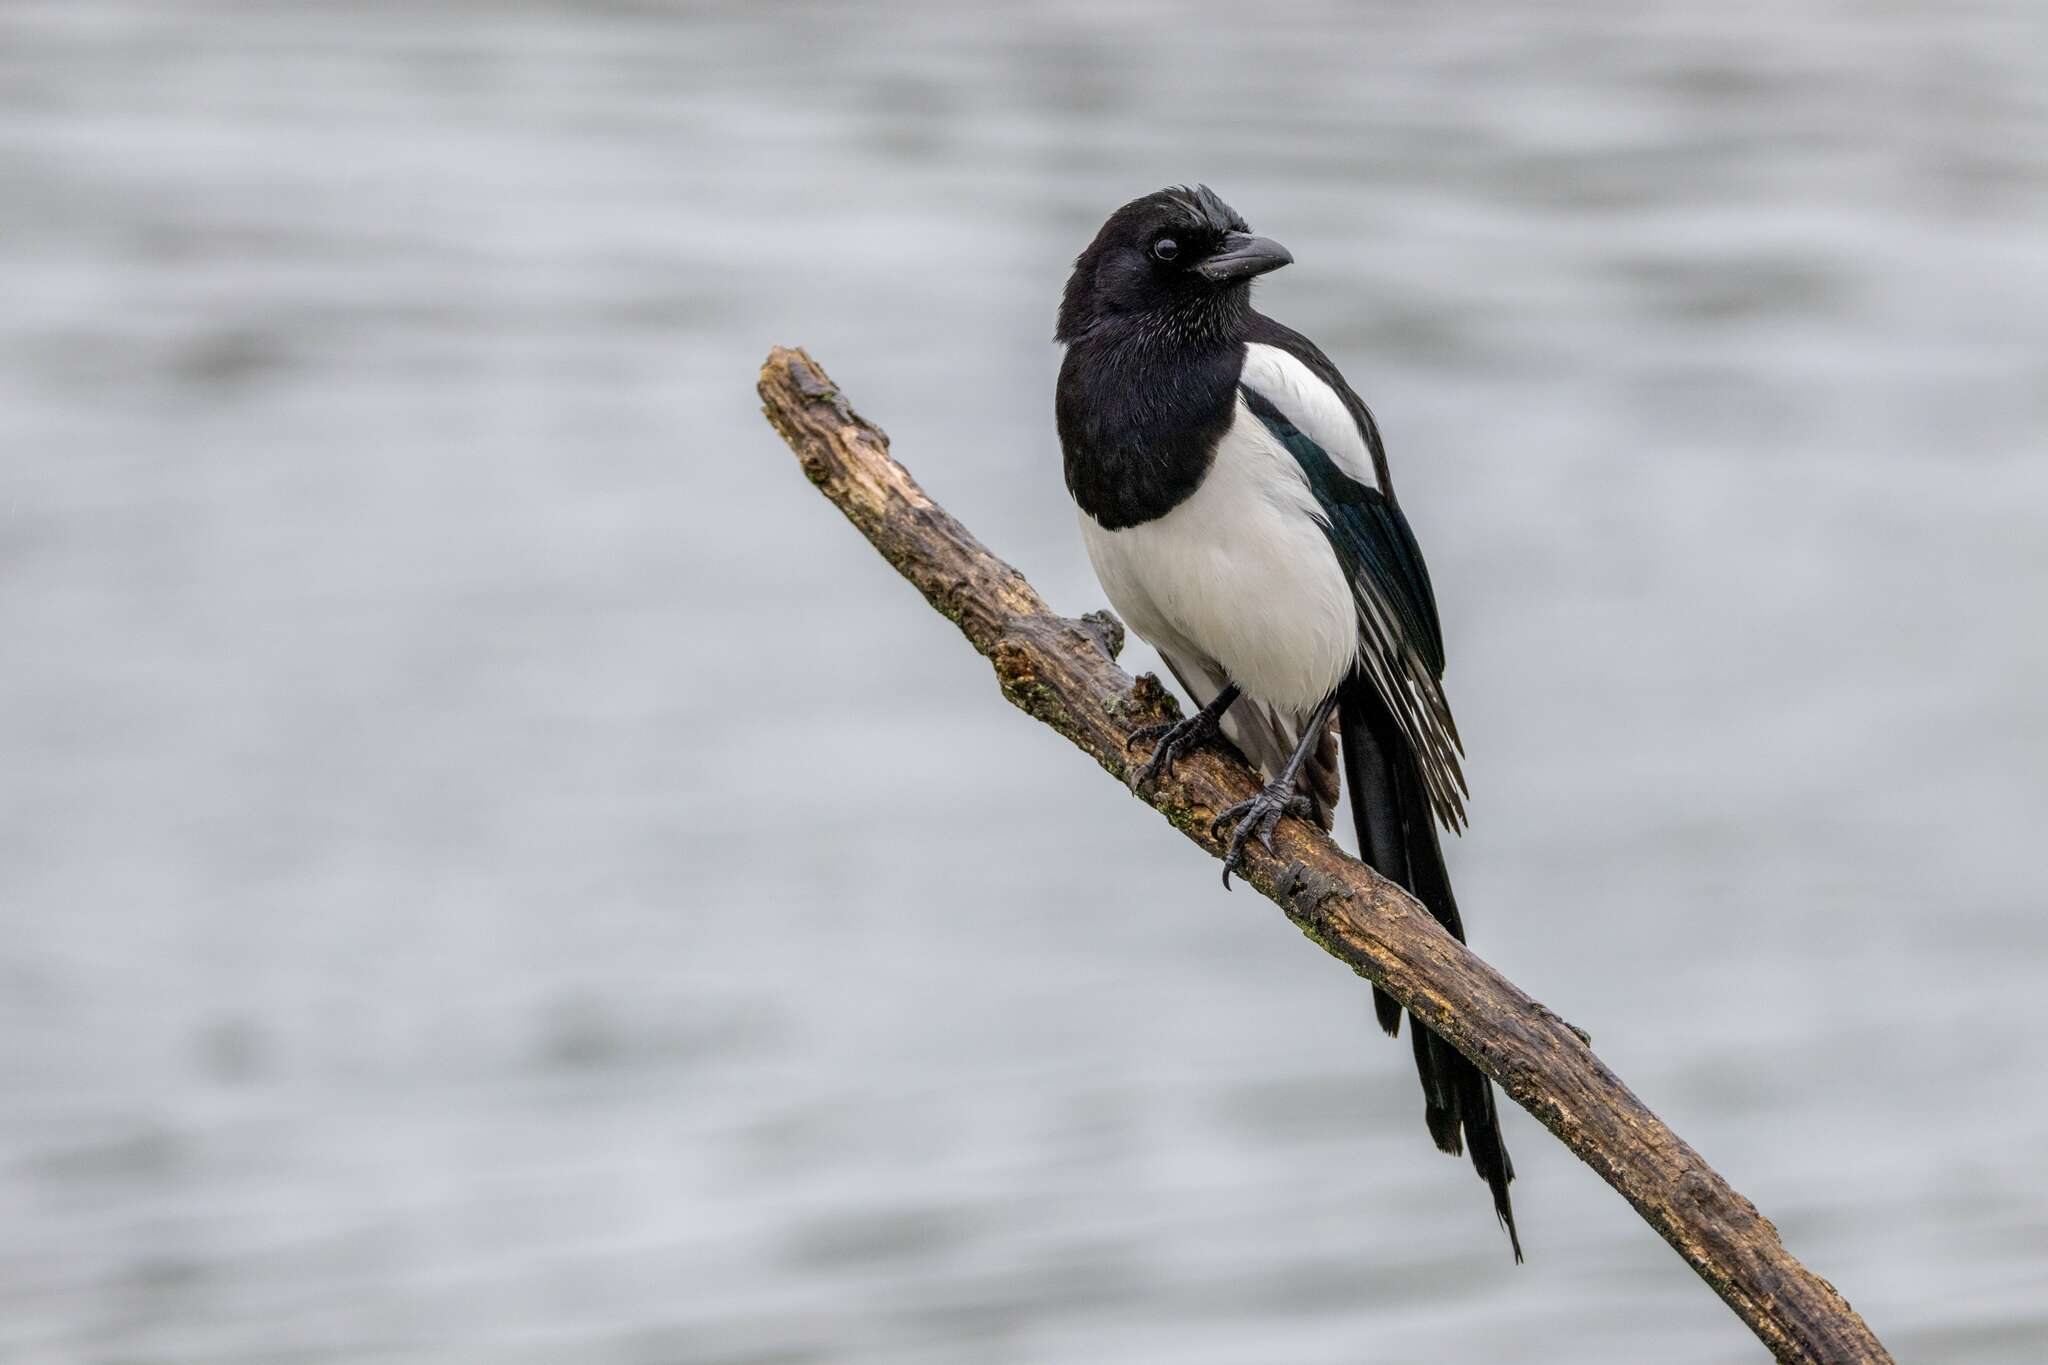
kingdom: Animalia
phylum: Chordata
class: Aves
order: Passeriformes
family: Corvidae
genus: Pica
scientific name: Pica pica
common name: Eurasian magpie
